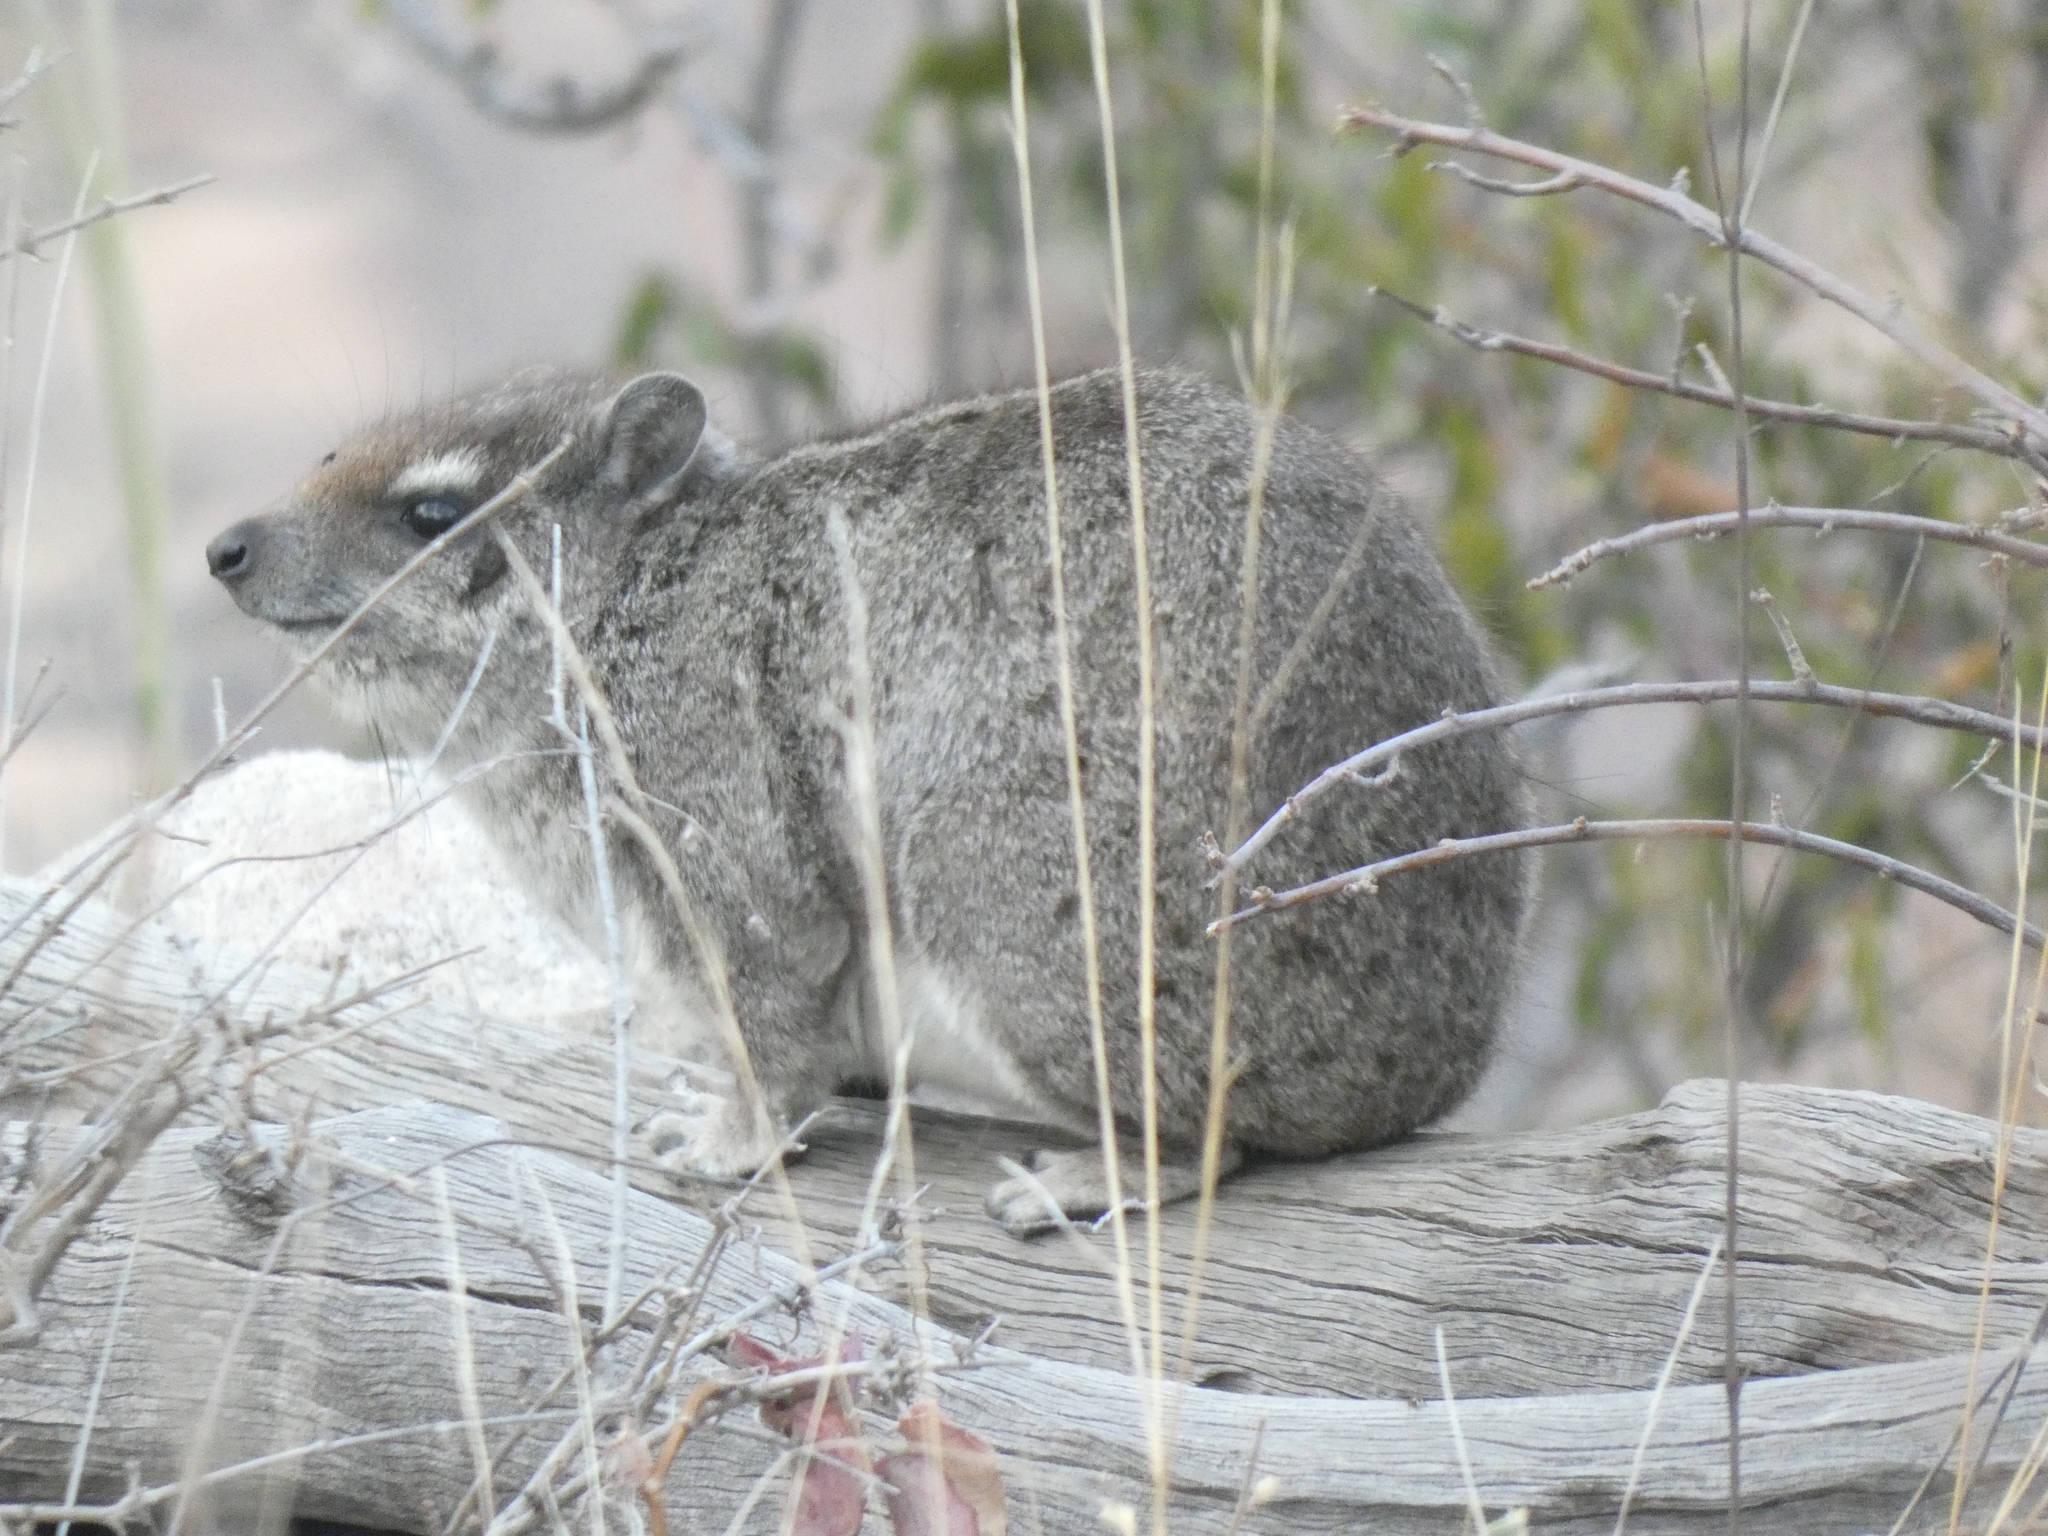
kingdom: Animalia
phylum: Chordata
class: Mammalia
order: Hyracoidea
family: Procaviidae
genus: Heterohyrax
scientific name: Heterohyrax brucei
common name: Bush hyrax
